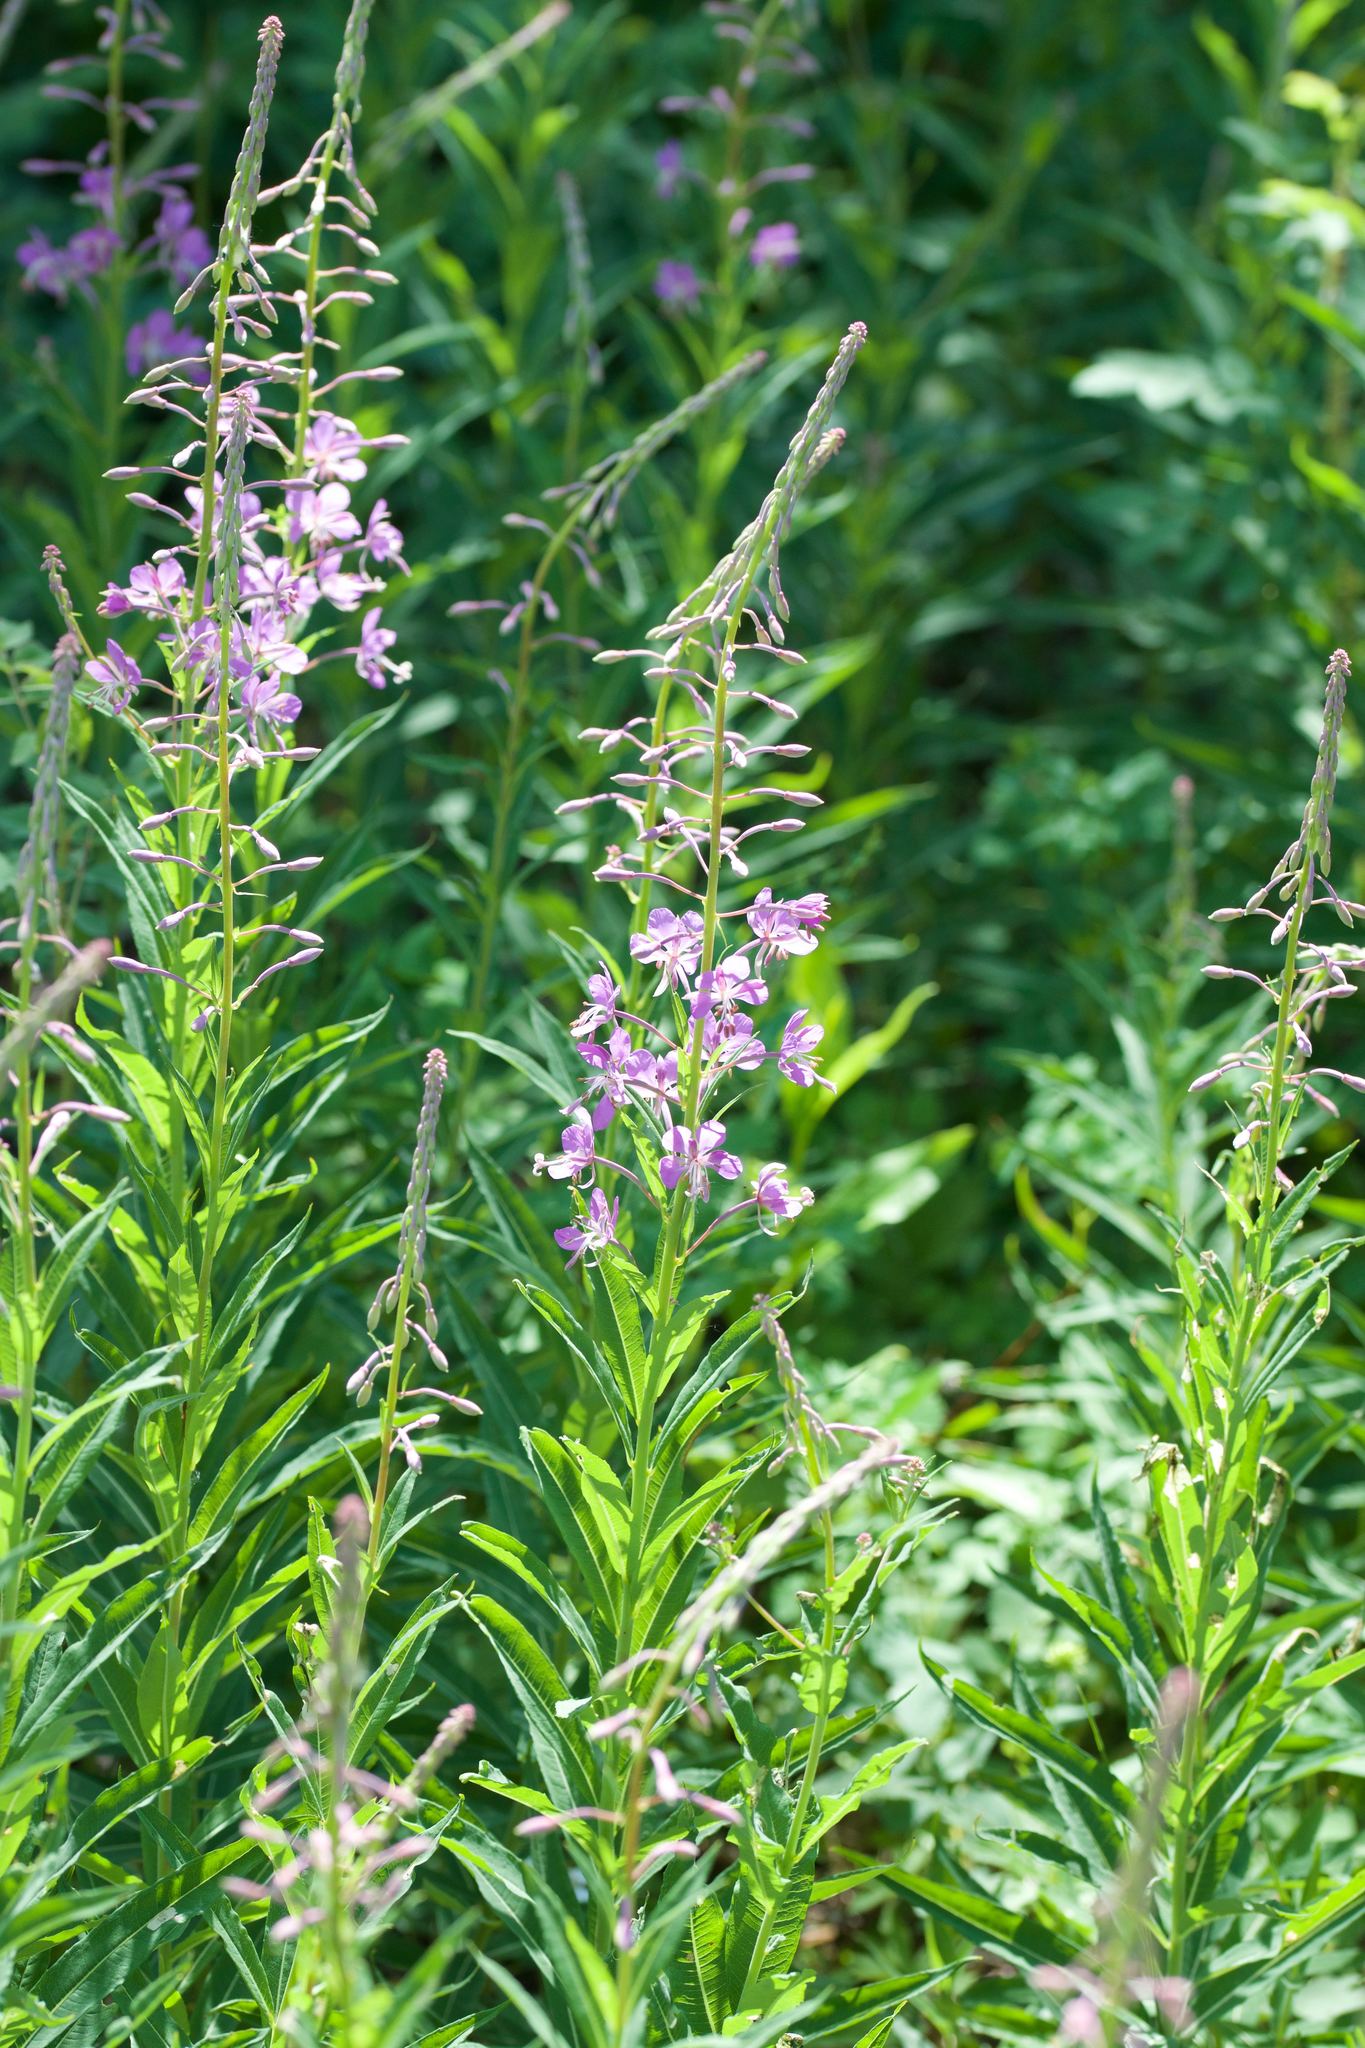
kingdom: Plantae
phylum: Tracheophyta
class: Magnoliopsida
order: Myrtales
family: Onagraceae
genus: Chamaenerion
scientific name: Chamaenerion angustifolium
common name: Fireweed
